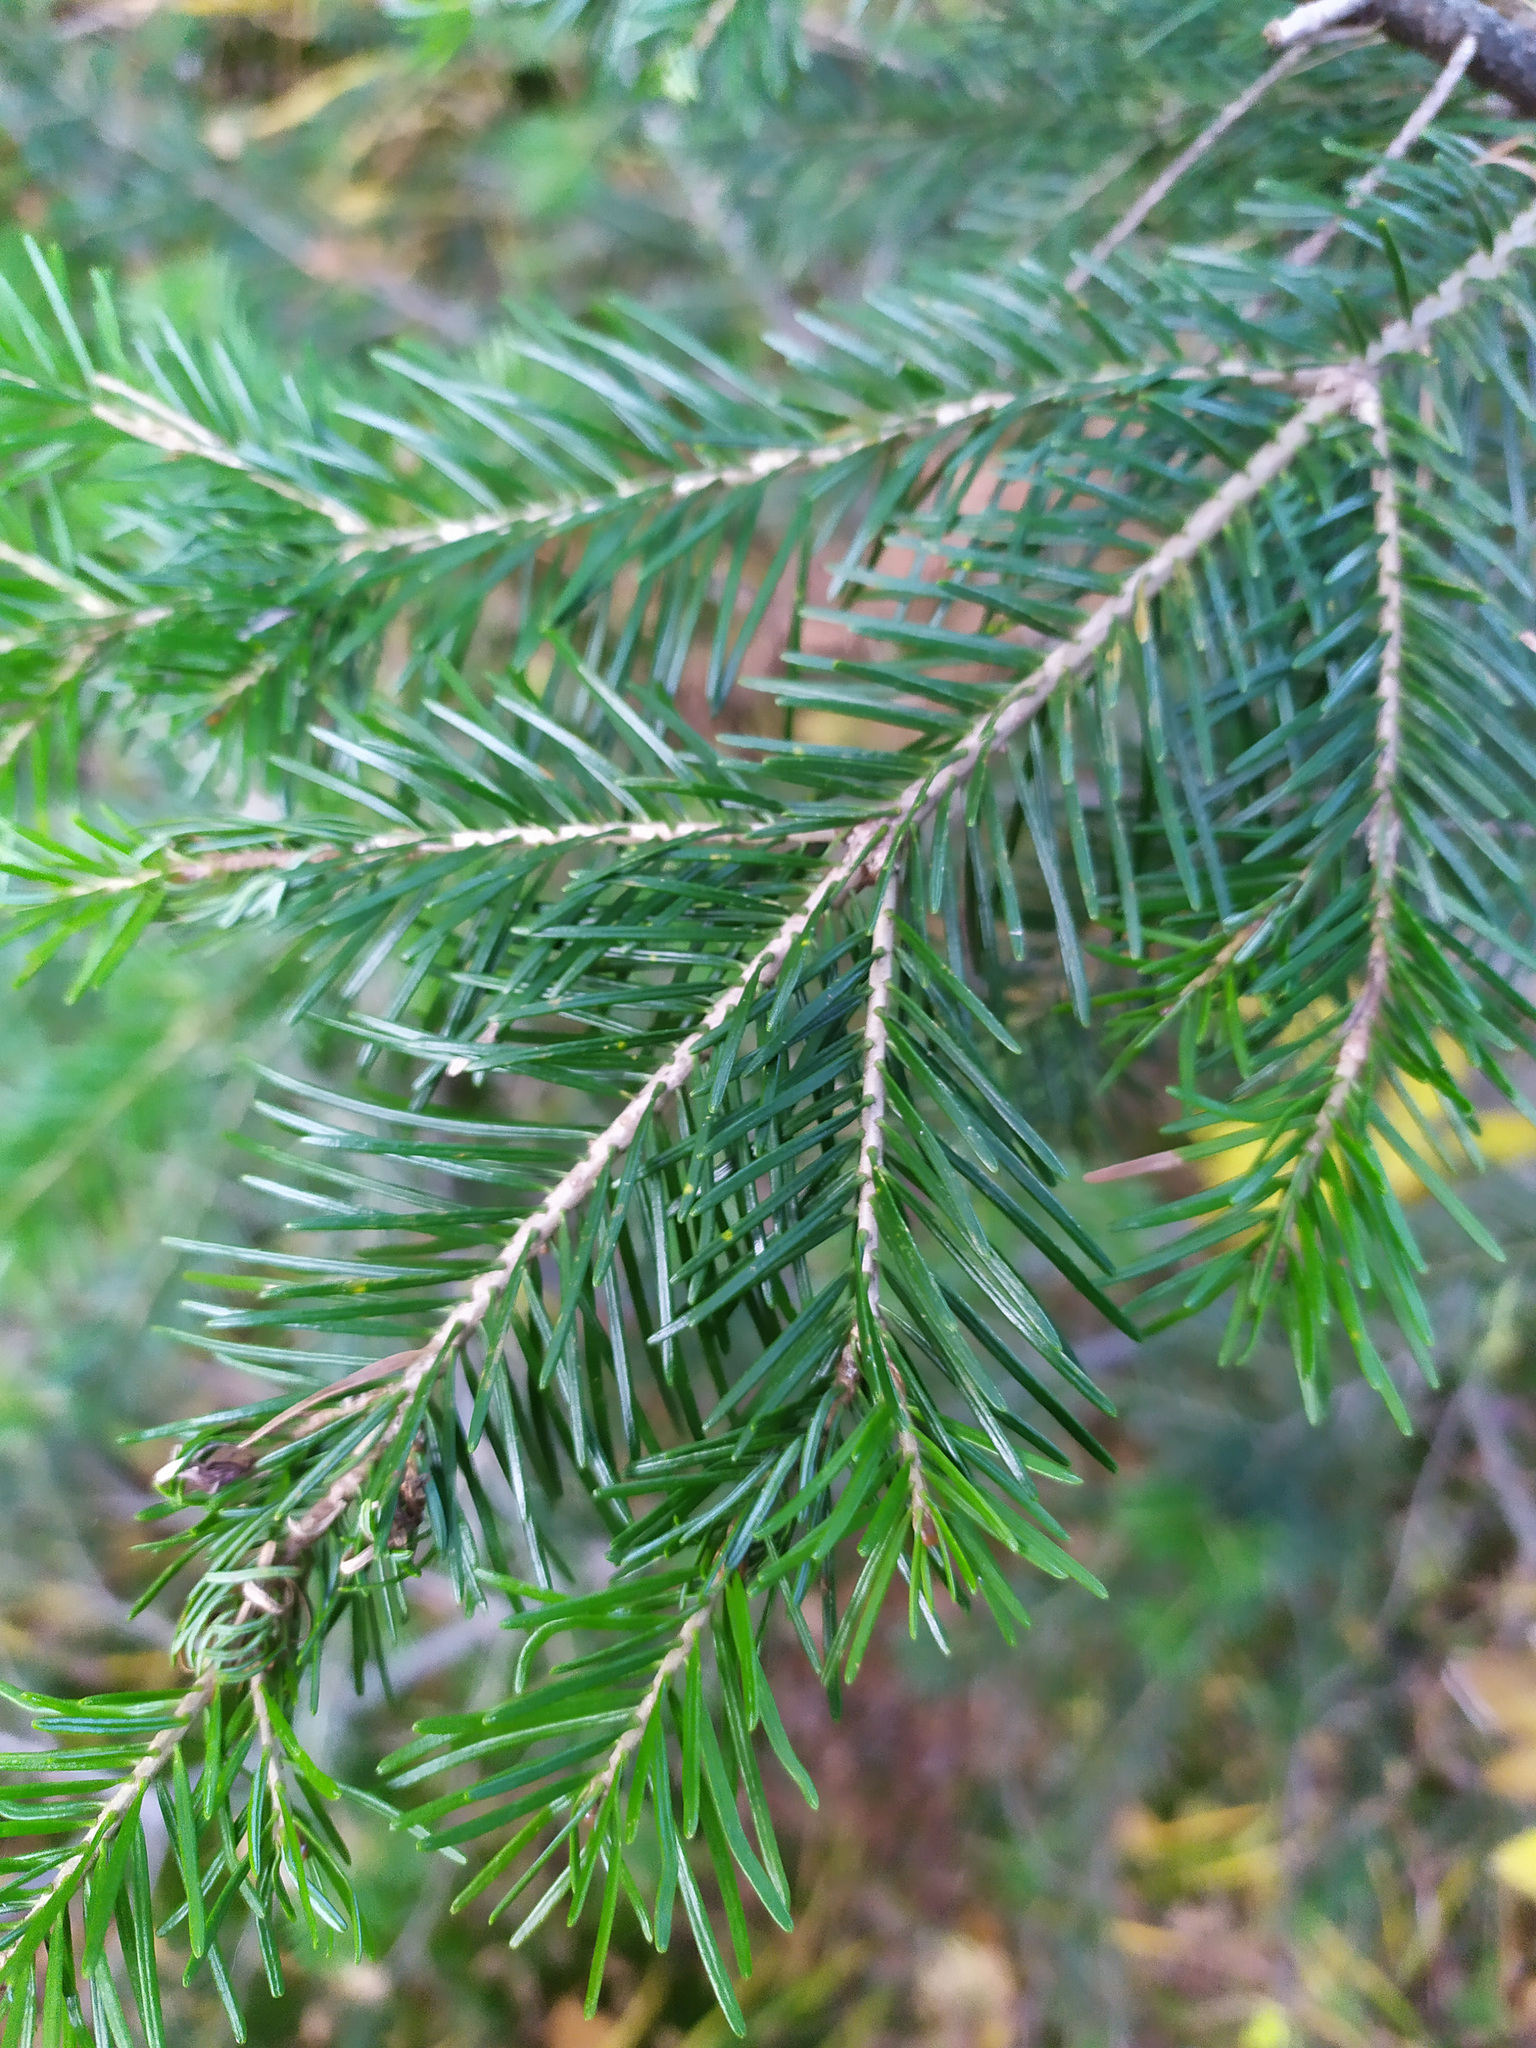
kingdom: Plantae
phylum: Tracheophyta
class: Pinopsida
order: Pinales
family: Pinaceae
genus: Abies
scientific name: Abies sibirica
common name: Siberian fir
